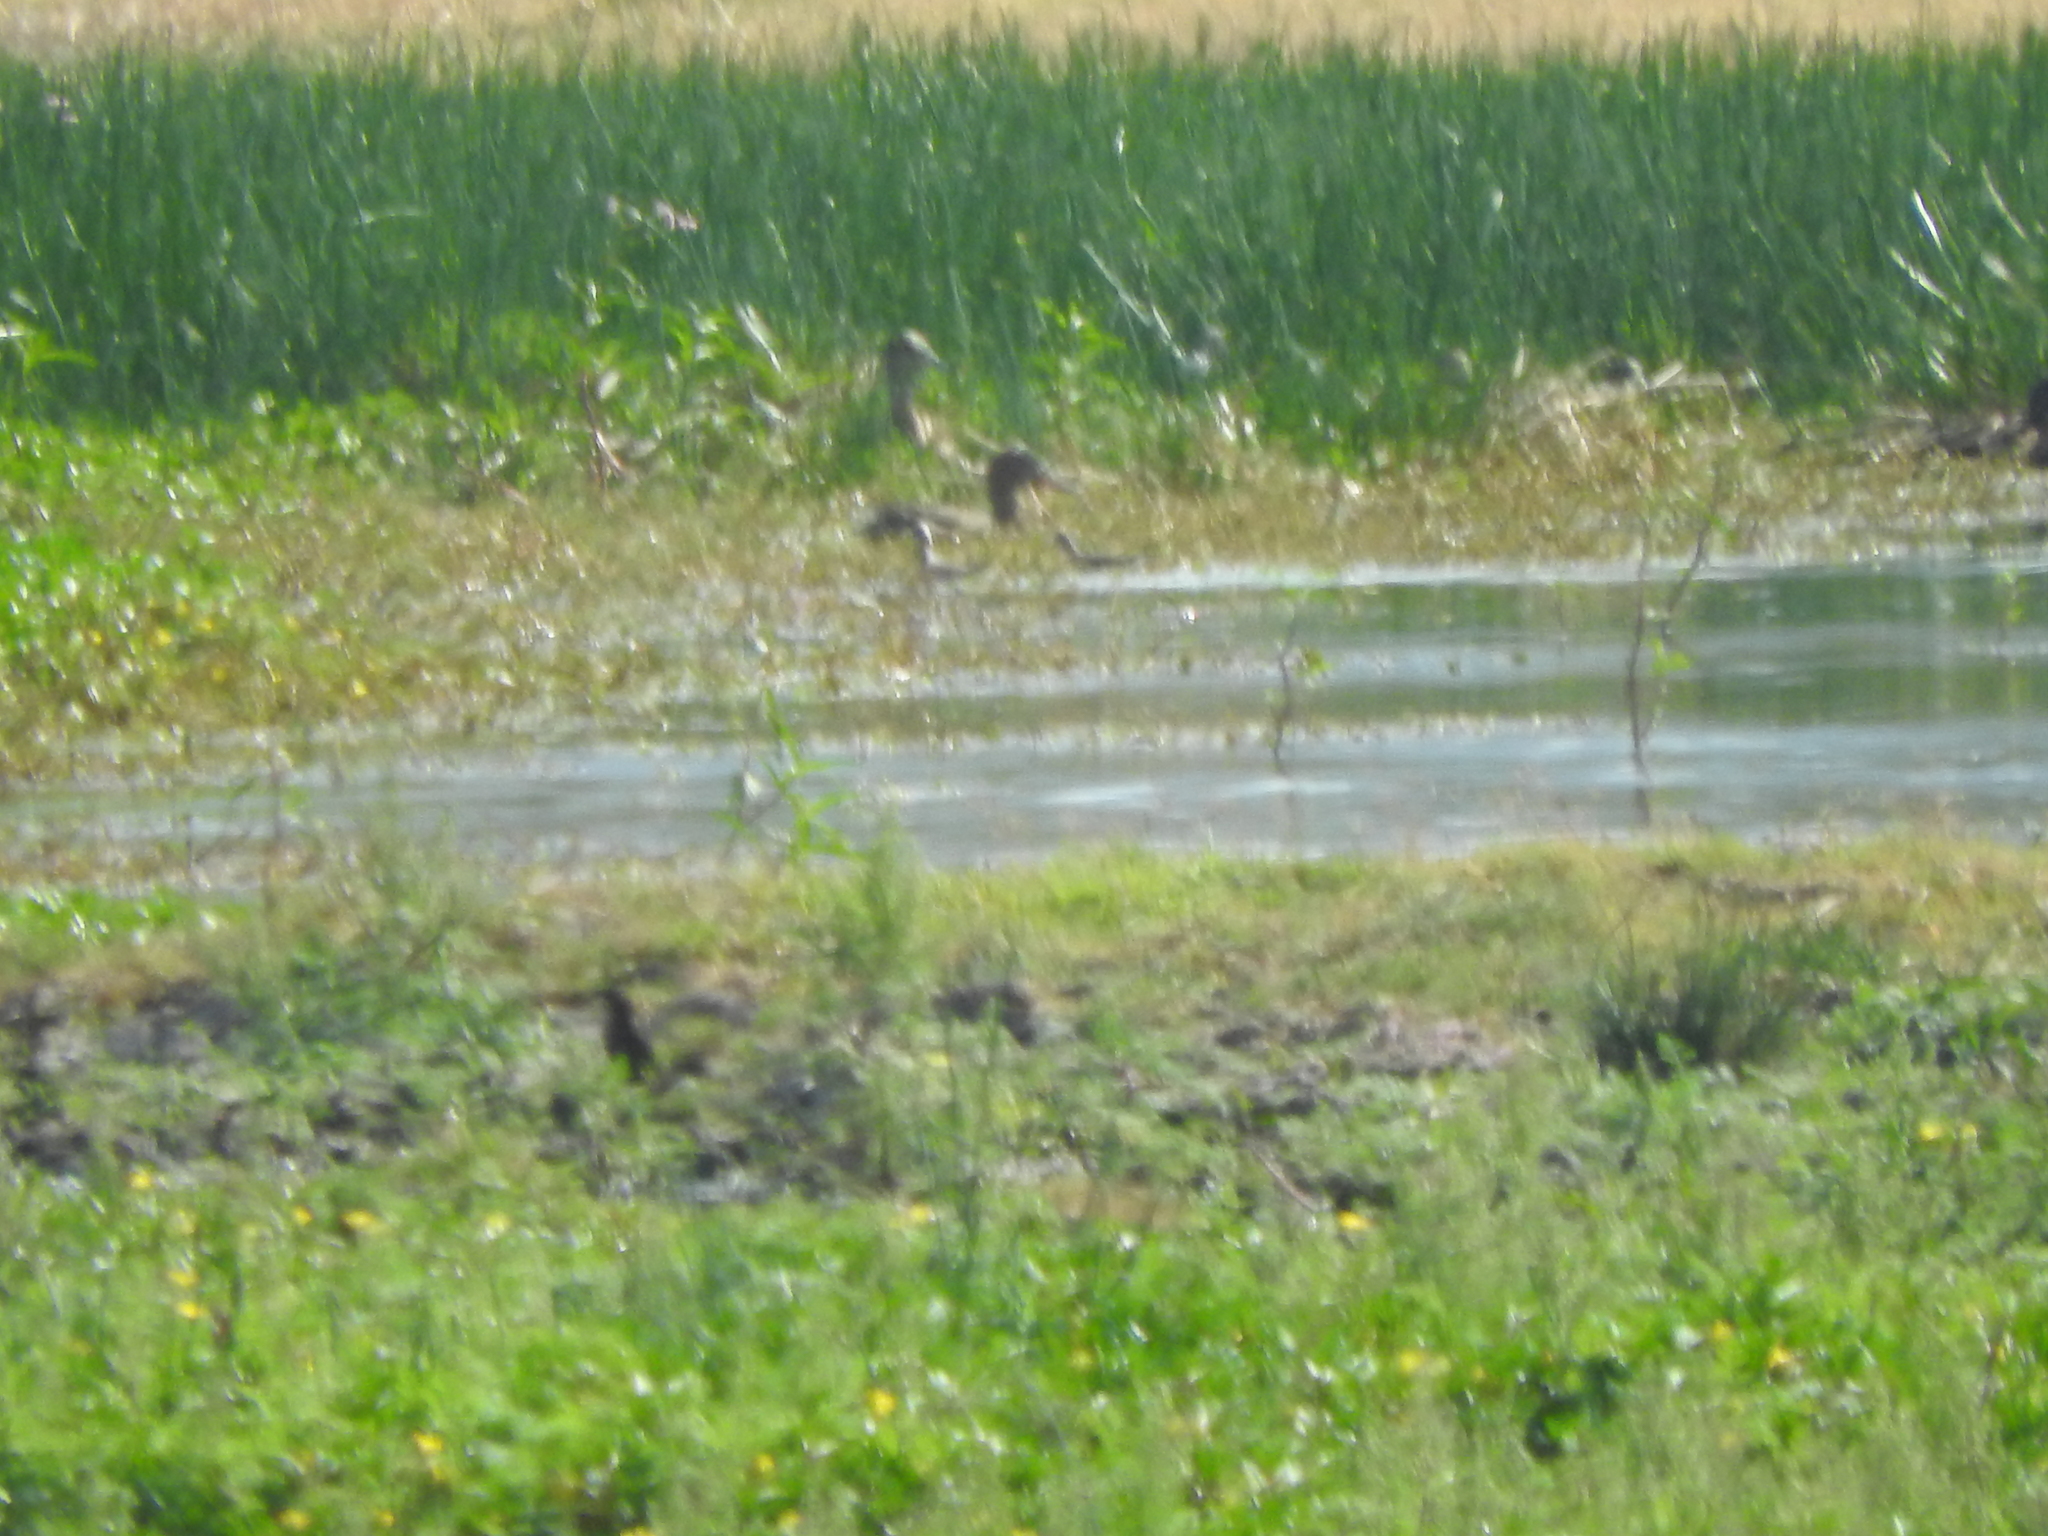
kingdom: Animalia
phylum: Chordata
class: Aves
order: Anseriformes
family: Anatidae
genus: Mareca
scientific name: Mareca strepera
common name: Gadwall
